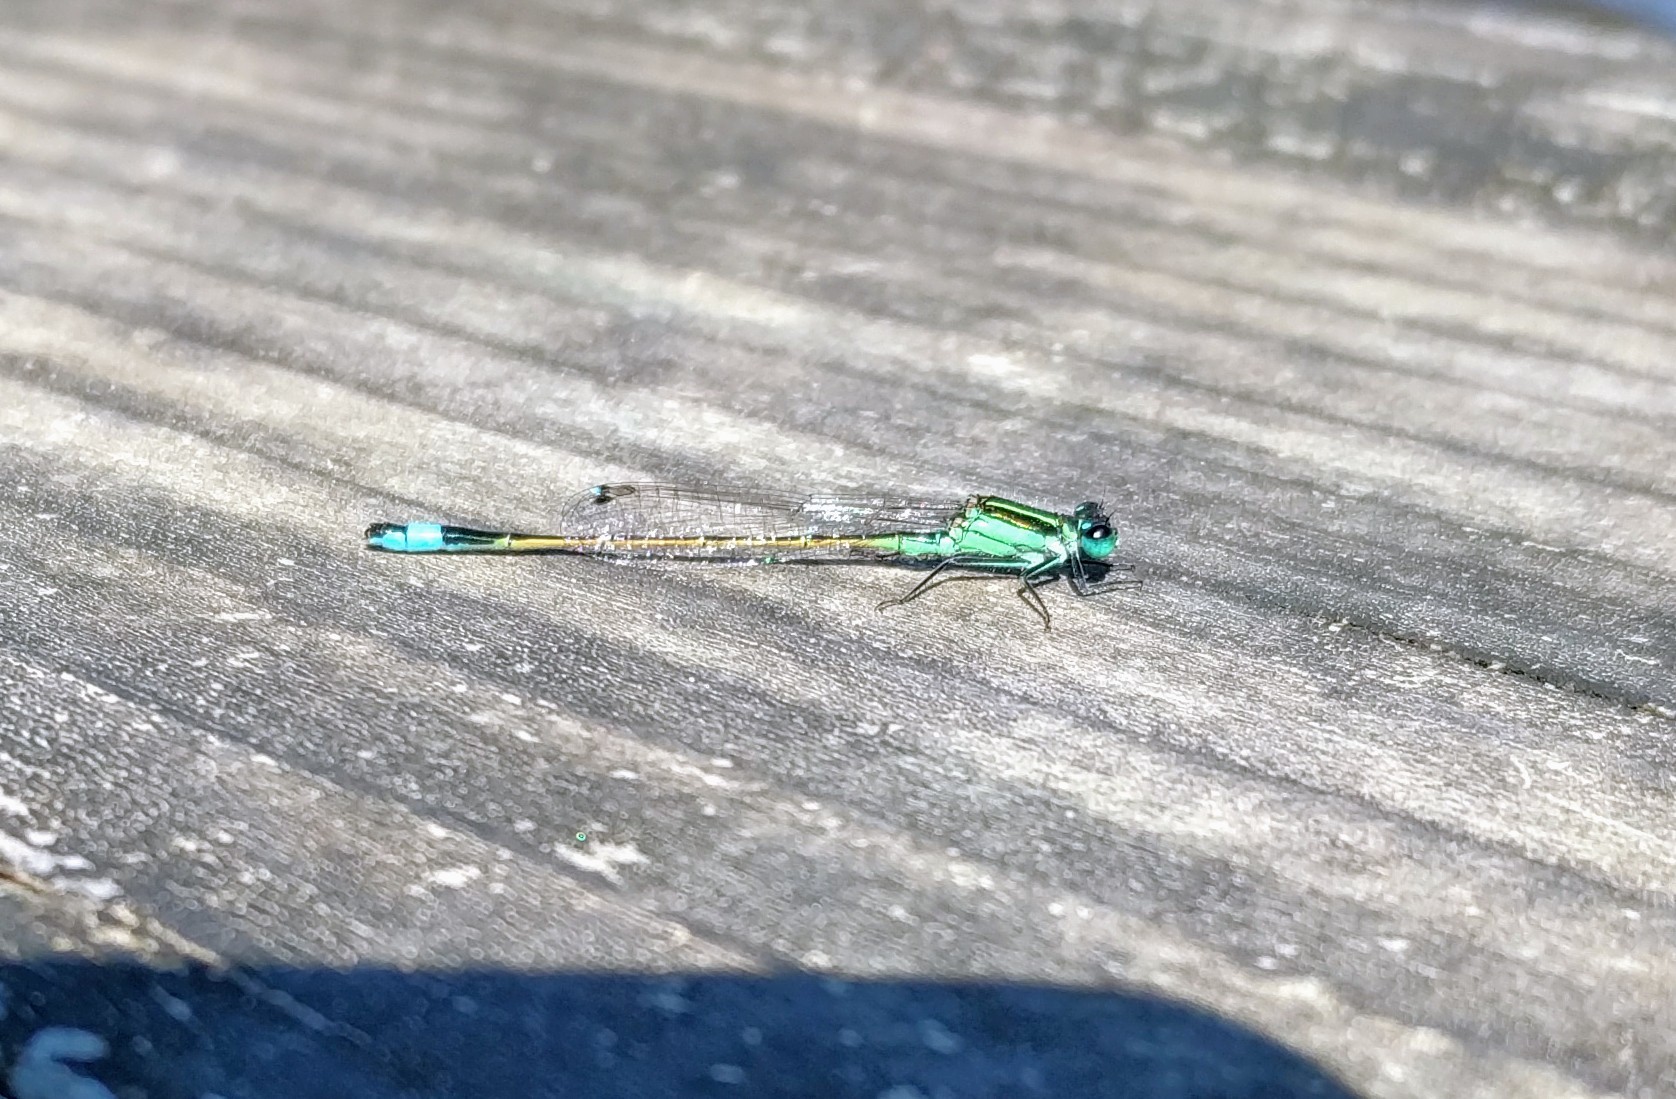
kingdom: Animalia
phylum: Arthropoda
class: Insecta
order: Odonata
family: Coenagrionidae
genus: Ischnura
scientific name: Ischnura ramburii
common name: Rambur's forktail
